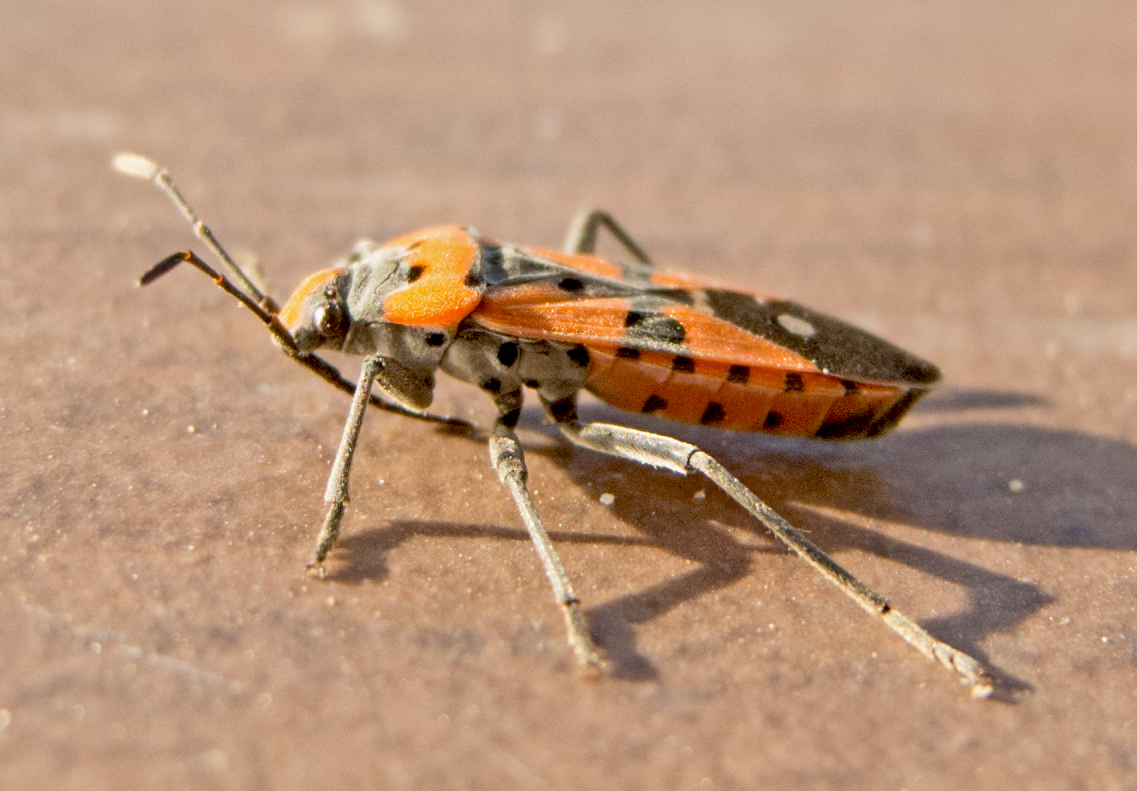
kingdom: Animalia
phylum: Arthropoda
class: Insecta
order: Hemiptera
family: Lygaeidae
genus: Lygaeus
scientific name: Lygaeus equestris
